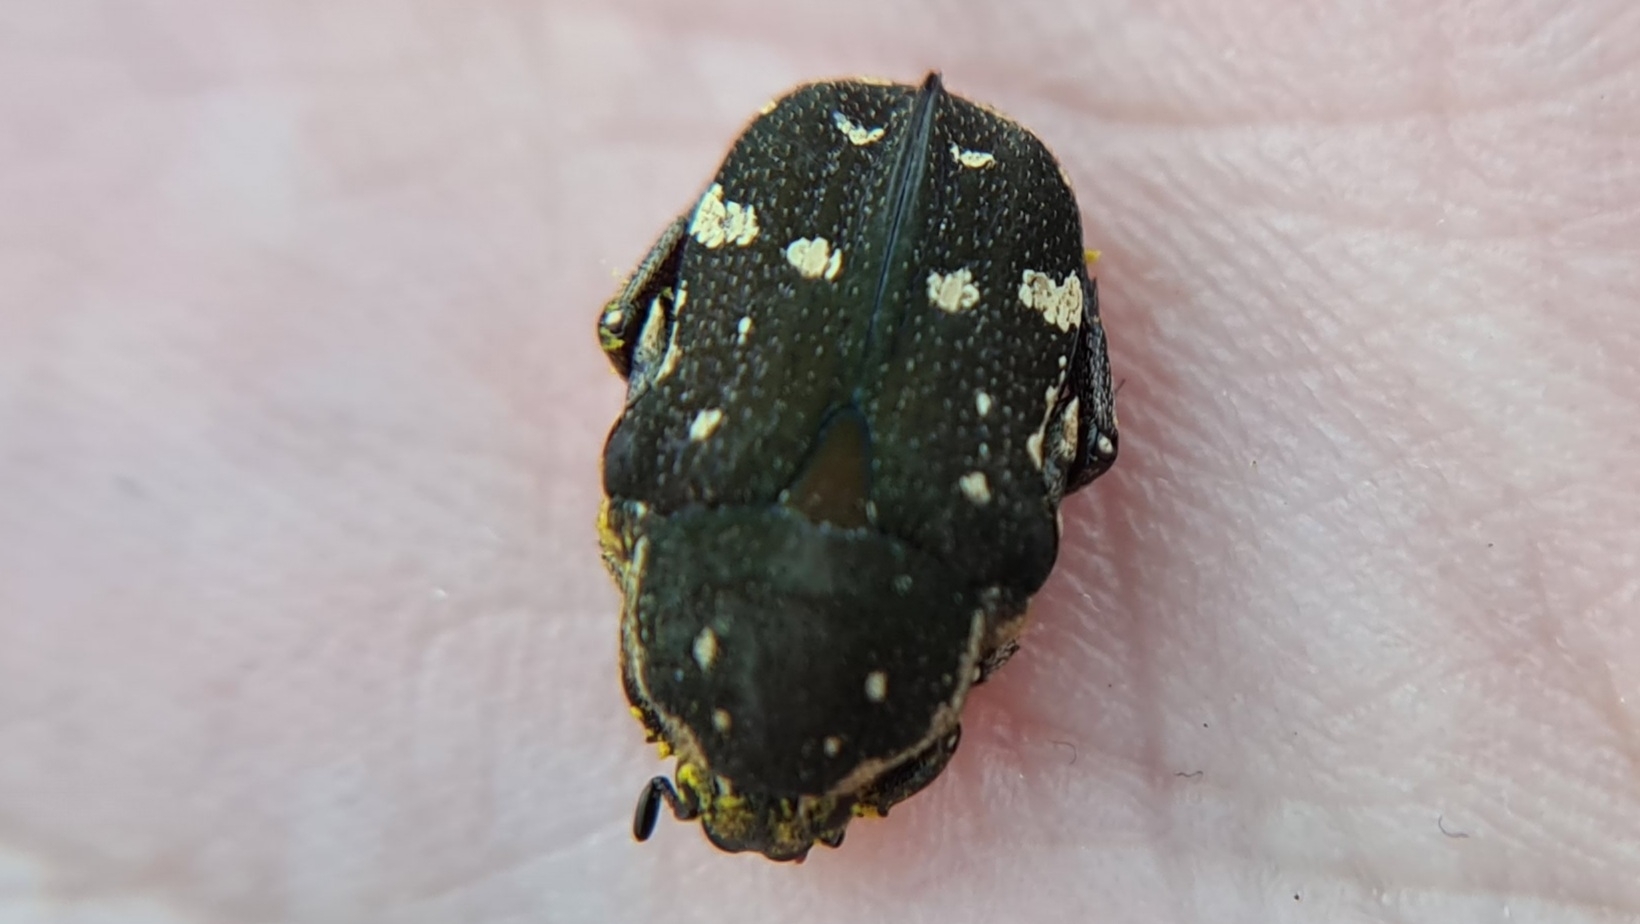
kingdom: Animalia
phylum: Arthropoda
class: Insecta
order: Coleoptera
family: Scarabaeidae
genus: Glycyphana
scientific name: Glycyphana stolata
